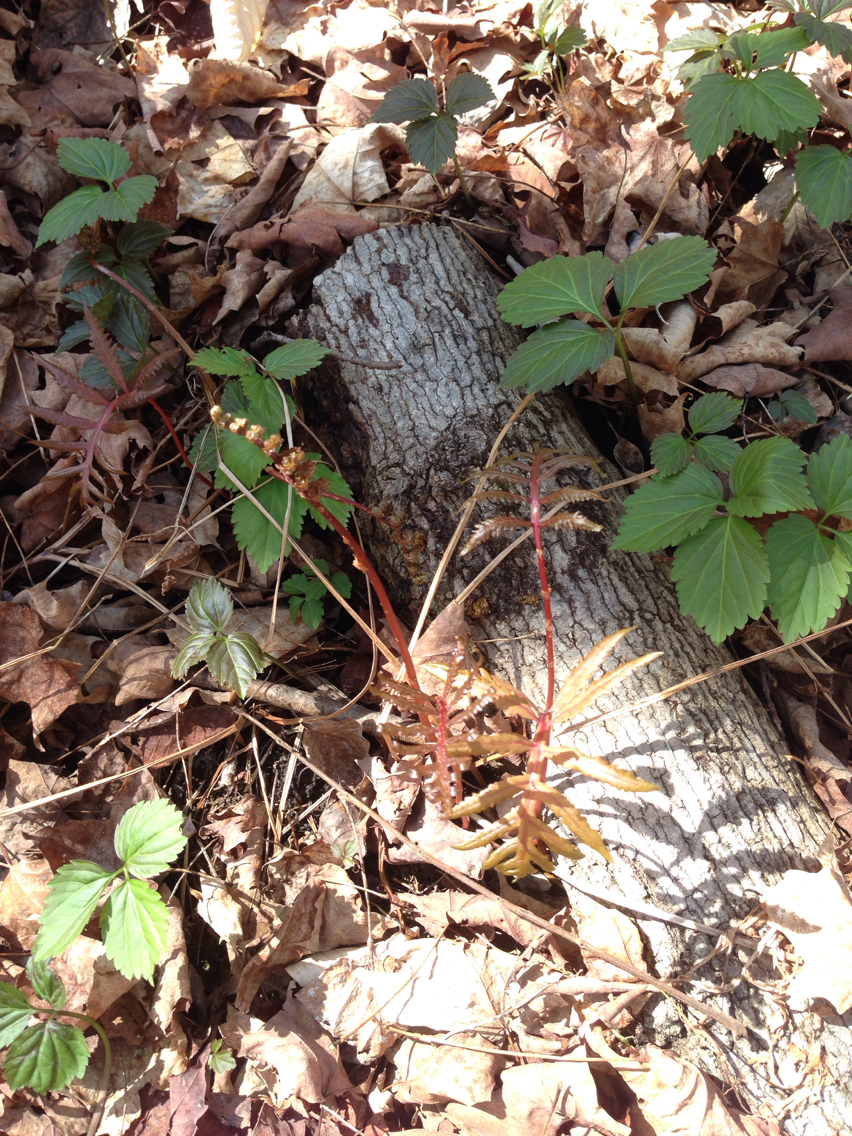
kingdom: Plantae
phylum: Tracheophyta
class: Magnoliopsida
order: Brassicales
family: Brassicaceae
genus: Cardamine
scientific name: Cardamine diphylla
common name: Broad-leaved toothwort
